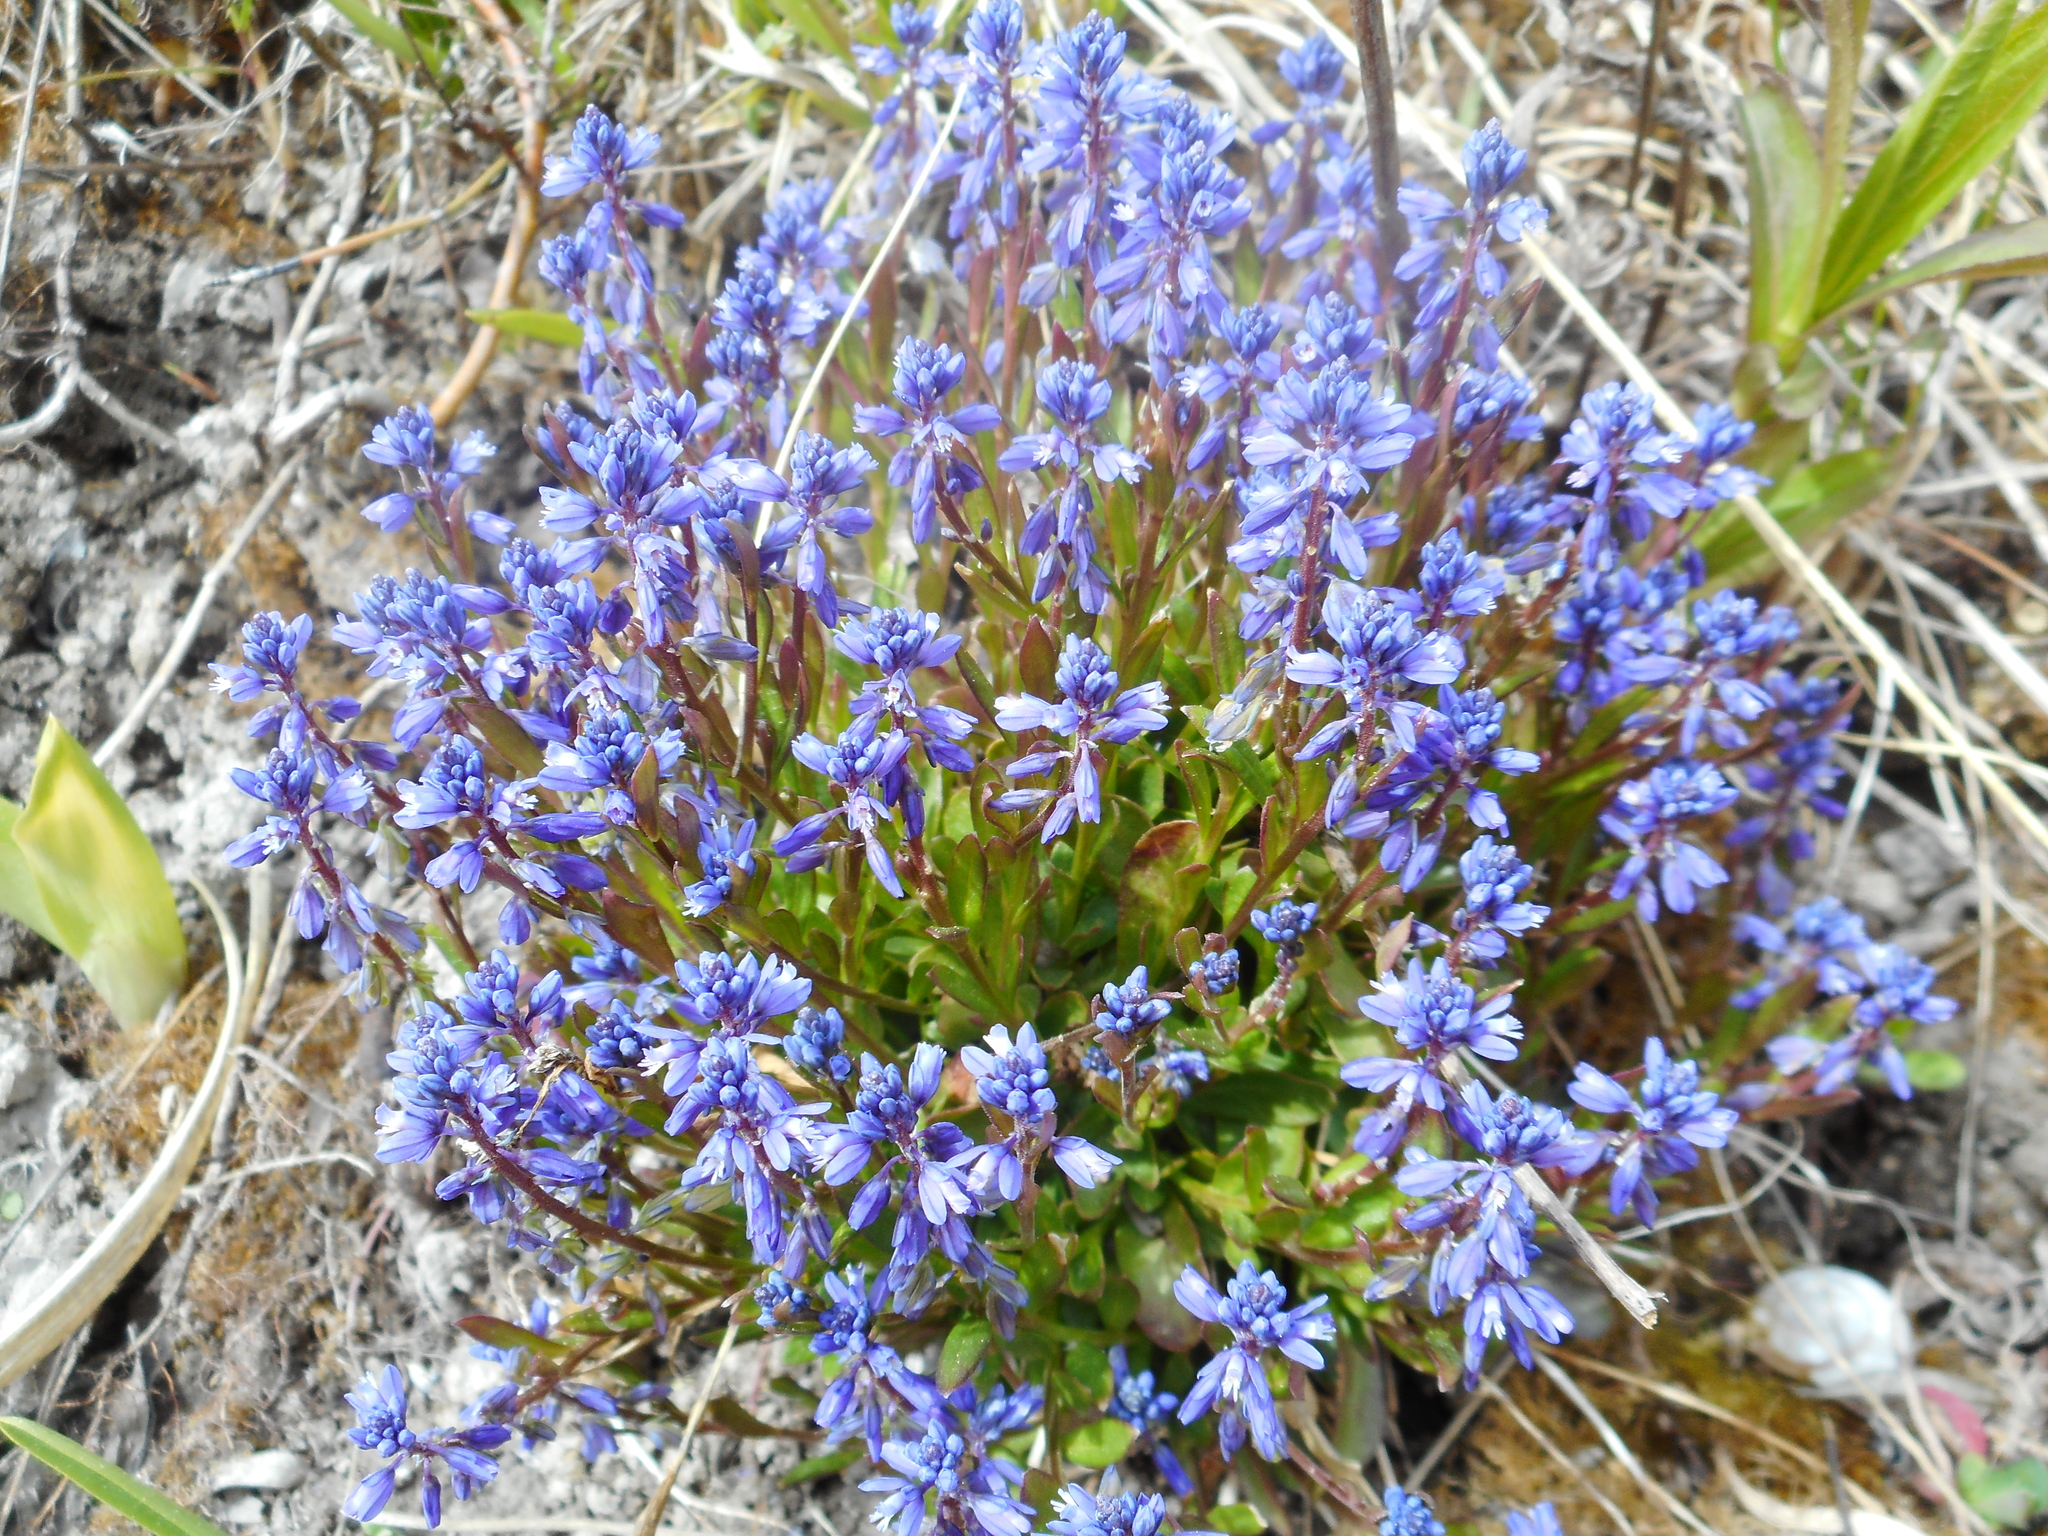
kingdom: Plantae
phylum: Tracheophyta
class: Magnoliopsida
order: Fabales
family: Polygalaceae
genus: Polygala
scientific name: Polygala amarella
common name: Dwarf milkwort
